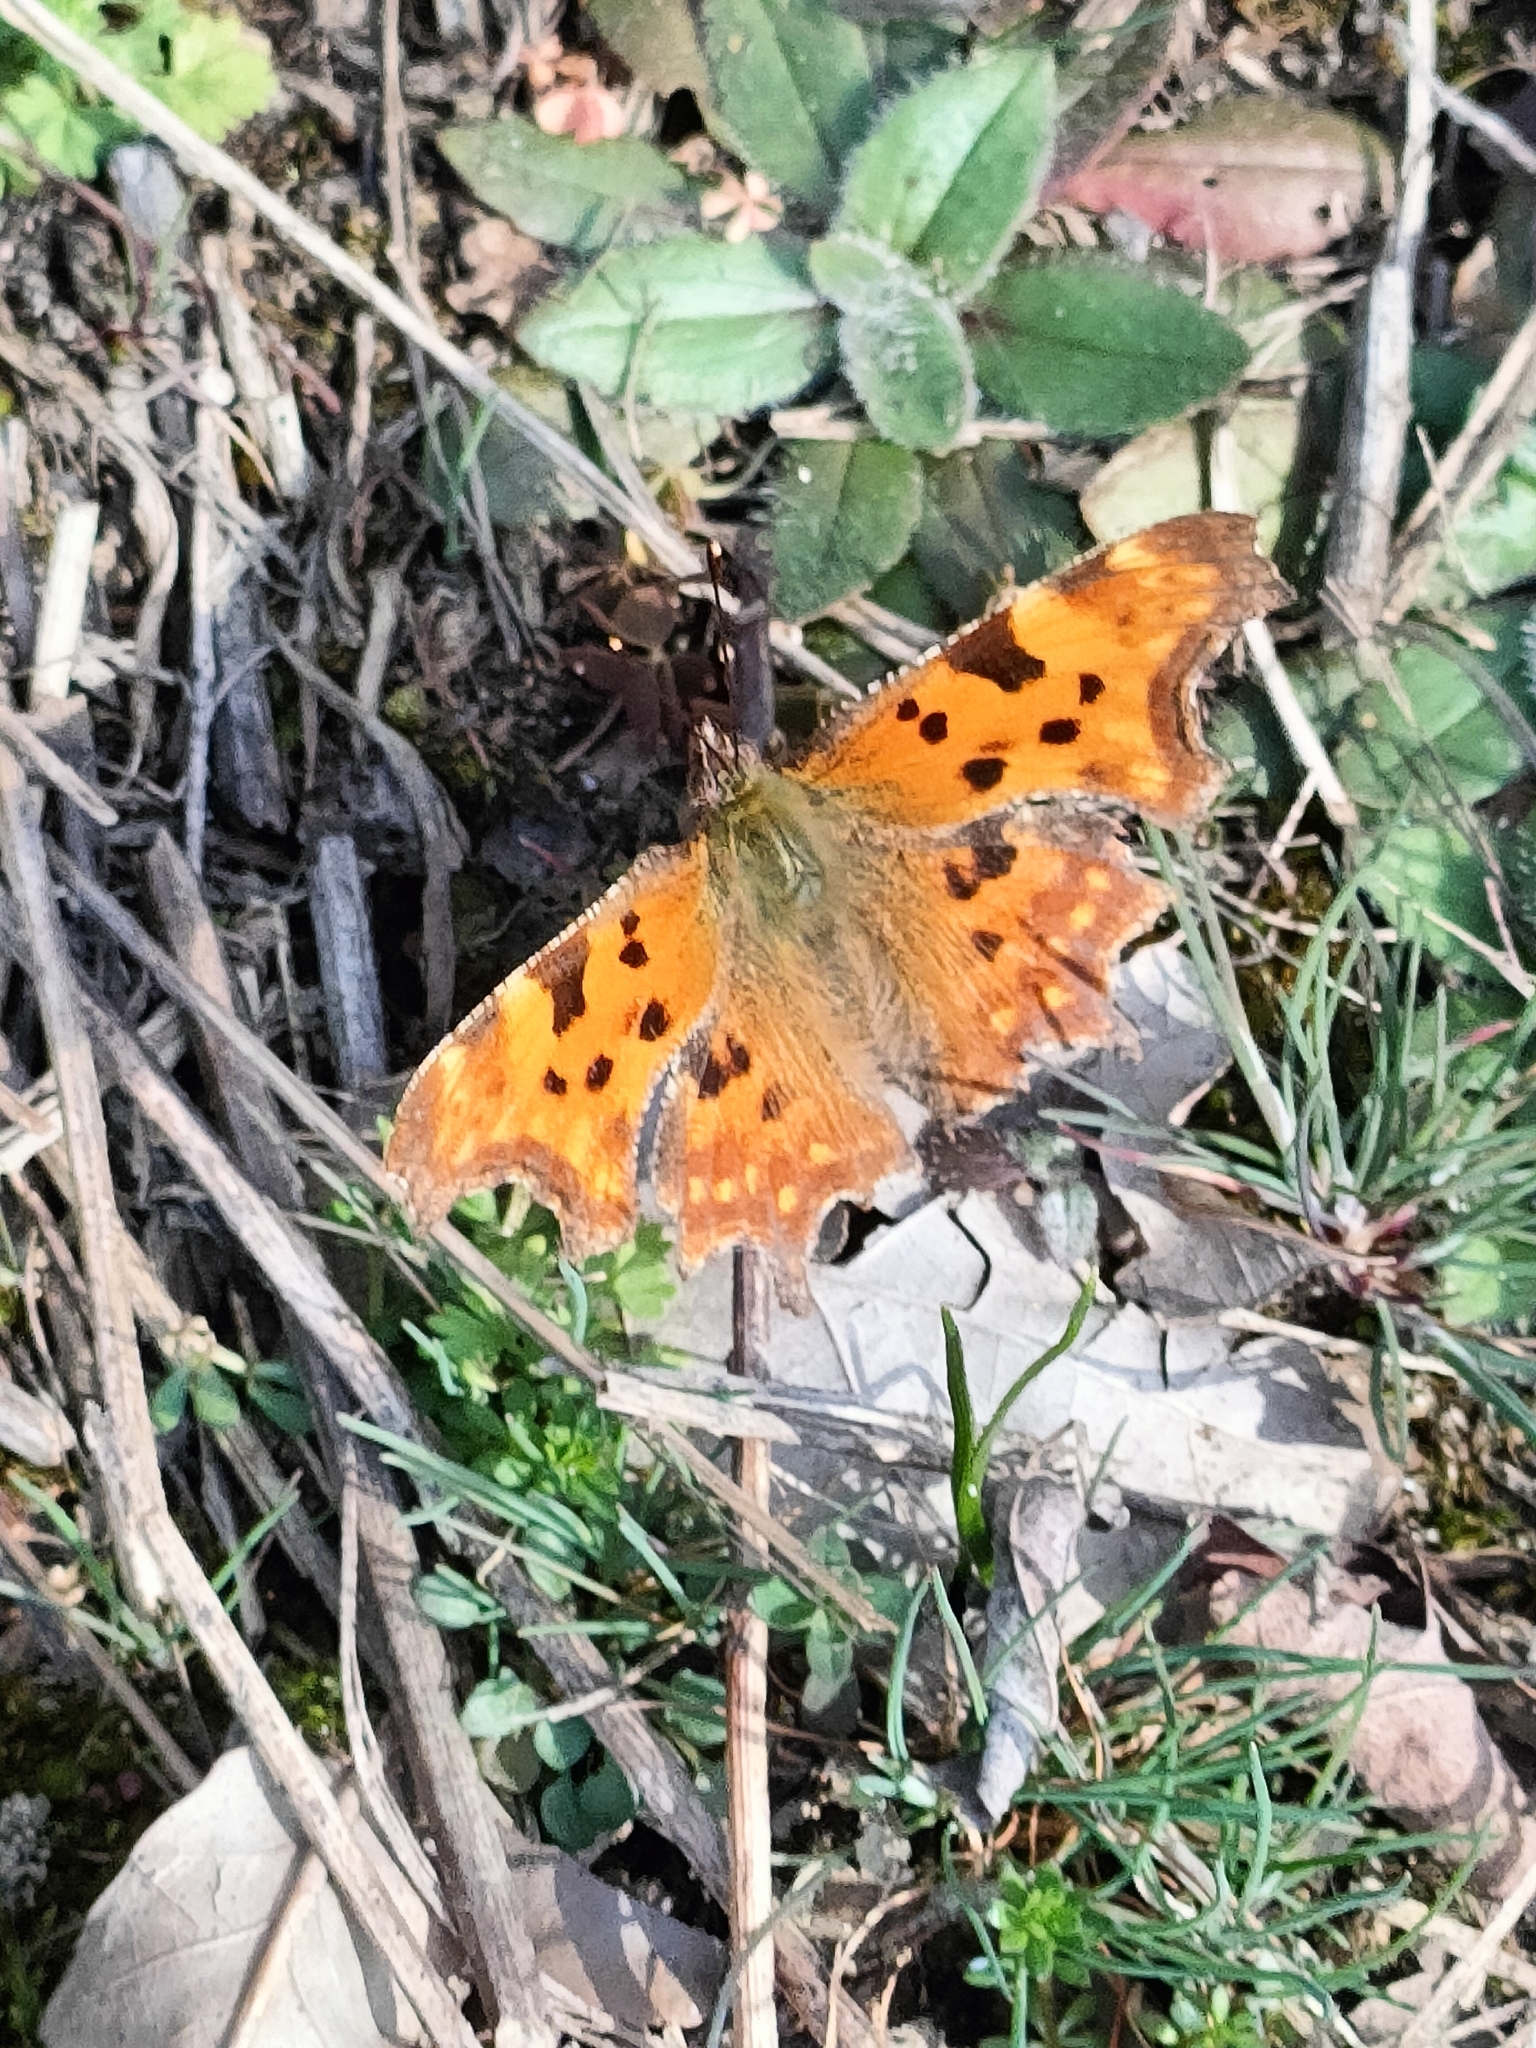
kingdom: Animalia
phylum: Arthropoda
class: Insecta
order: Lepidoptera
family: Nymphalidae
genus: Polygonia
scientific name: Polygonia c-album
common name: Comma
